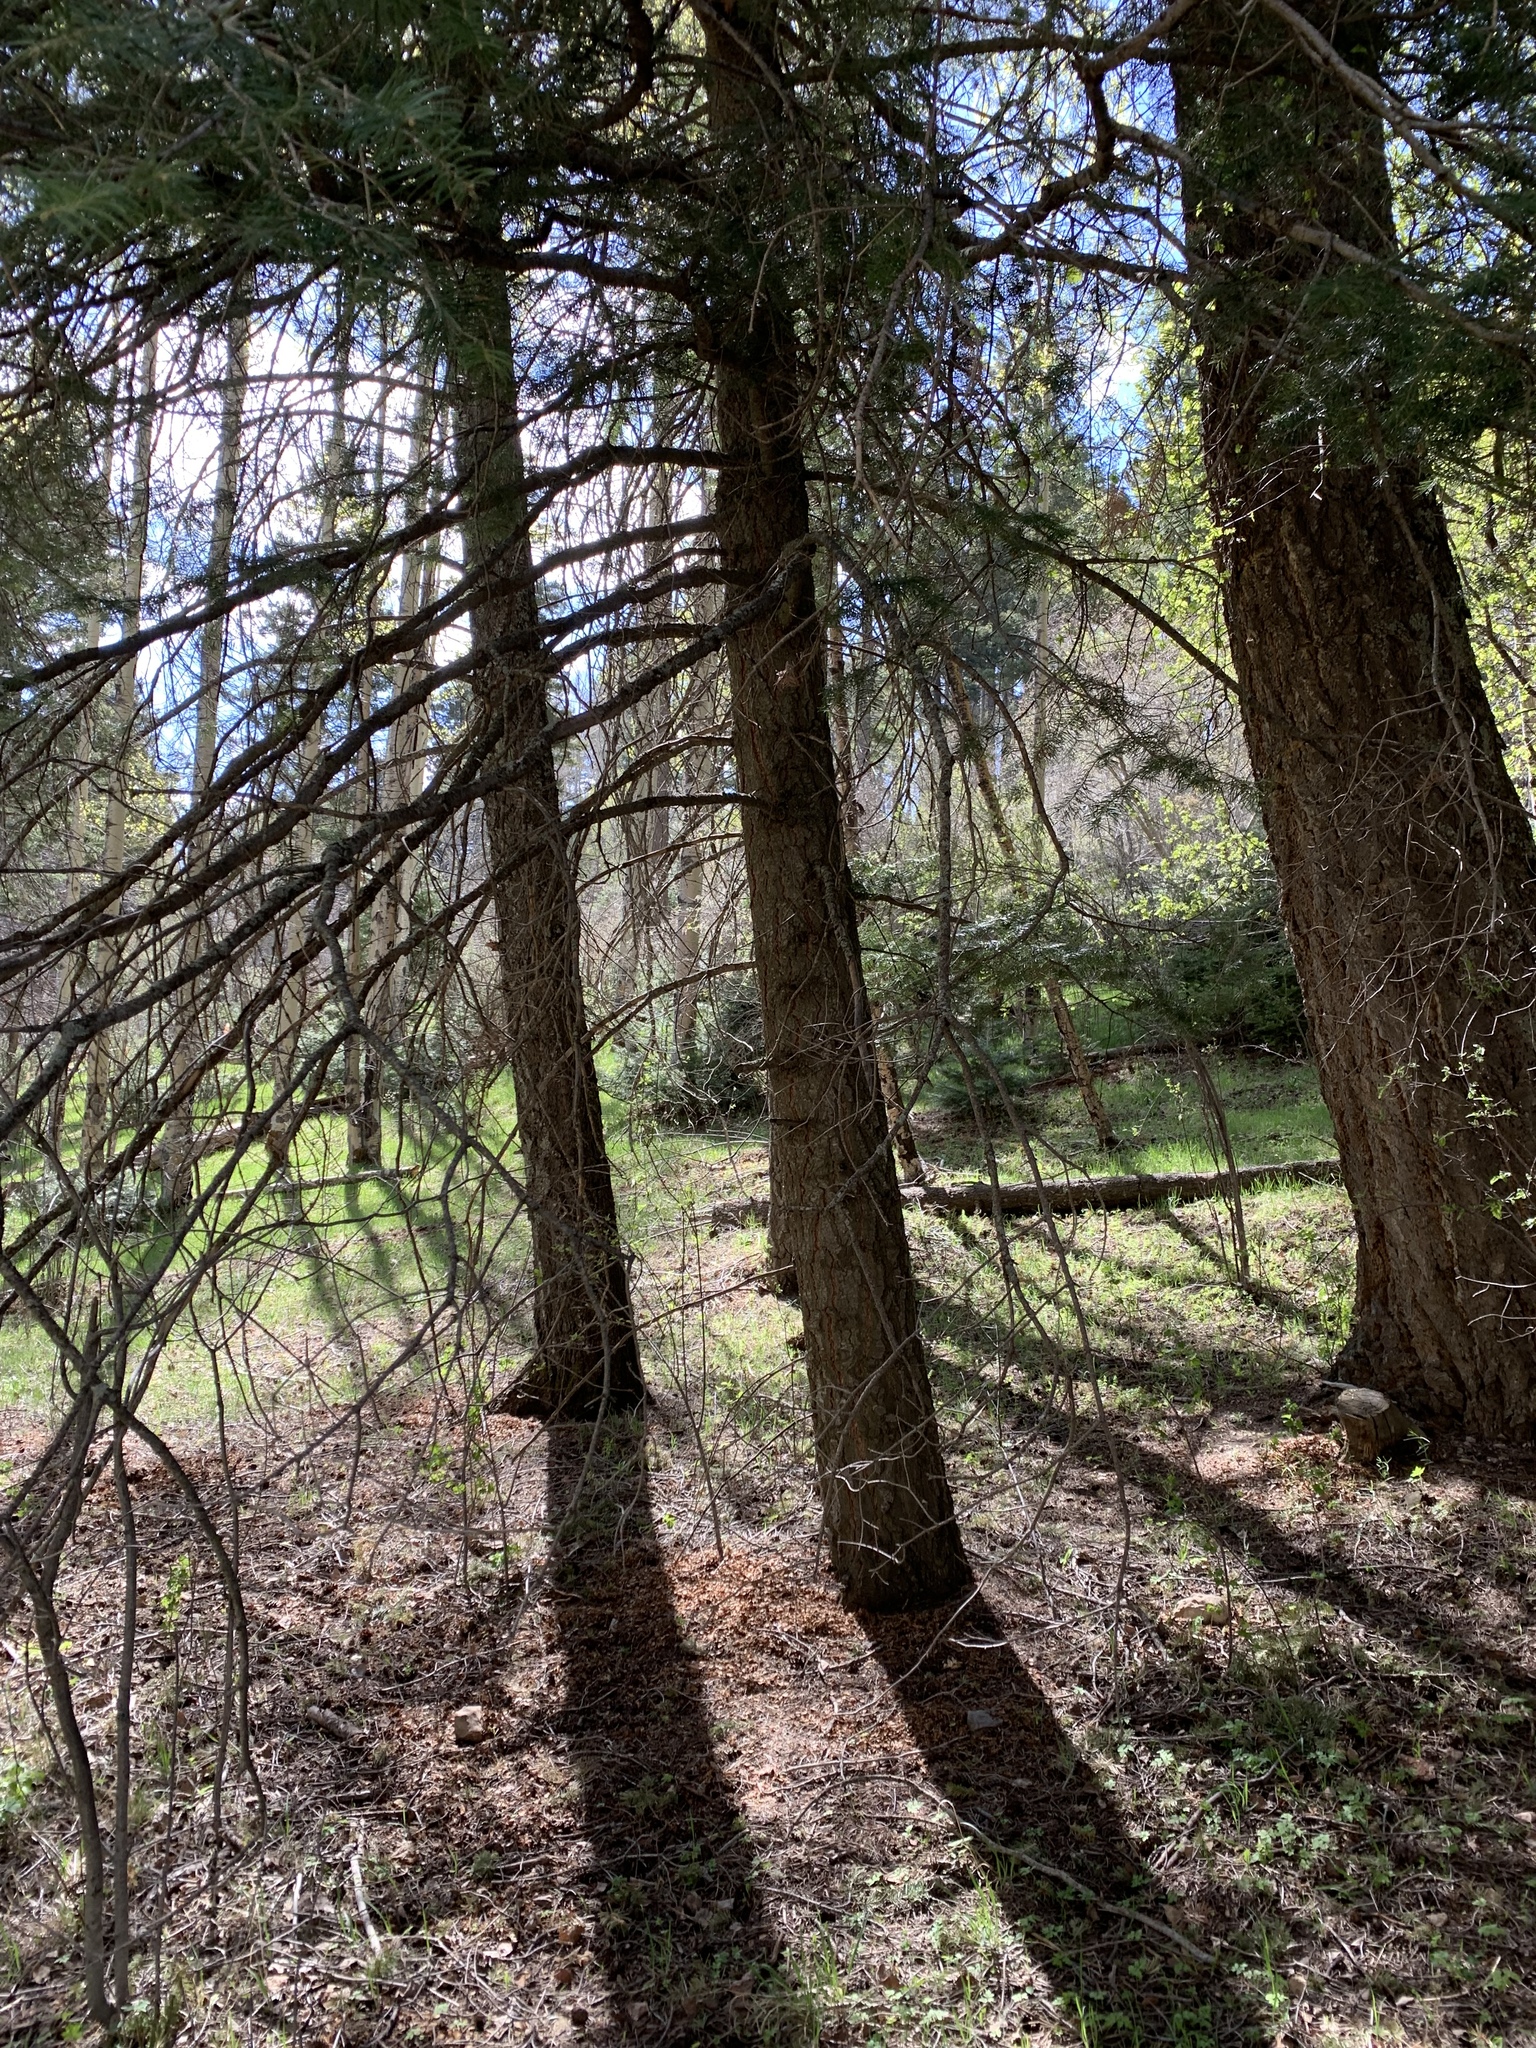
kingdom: Plantae
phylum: Tracheophyta
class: Pinopsida
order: Pinales
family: Pinaceae
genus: Abies
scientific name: Abies concolor
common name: Colorado fir
